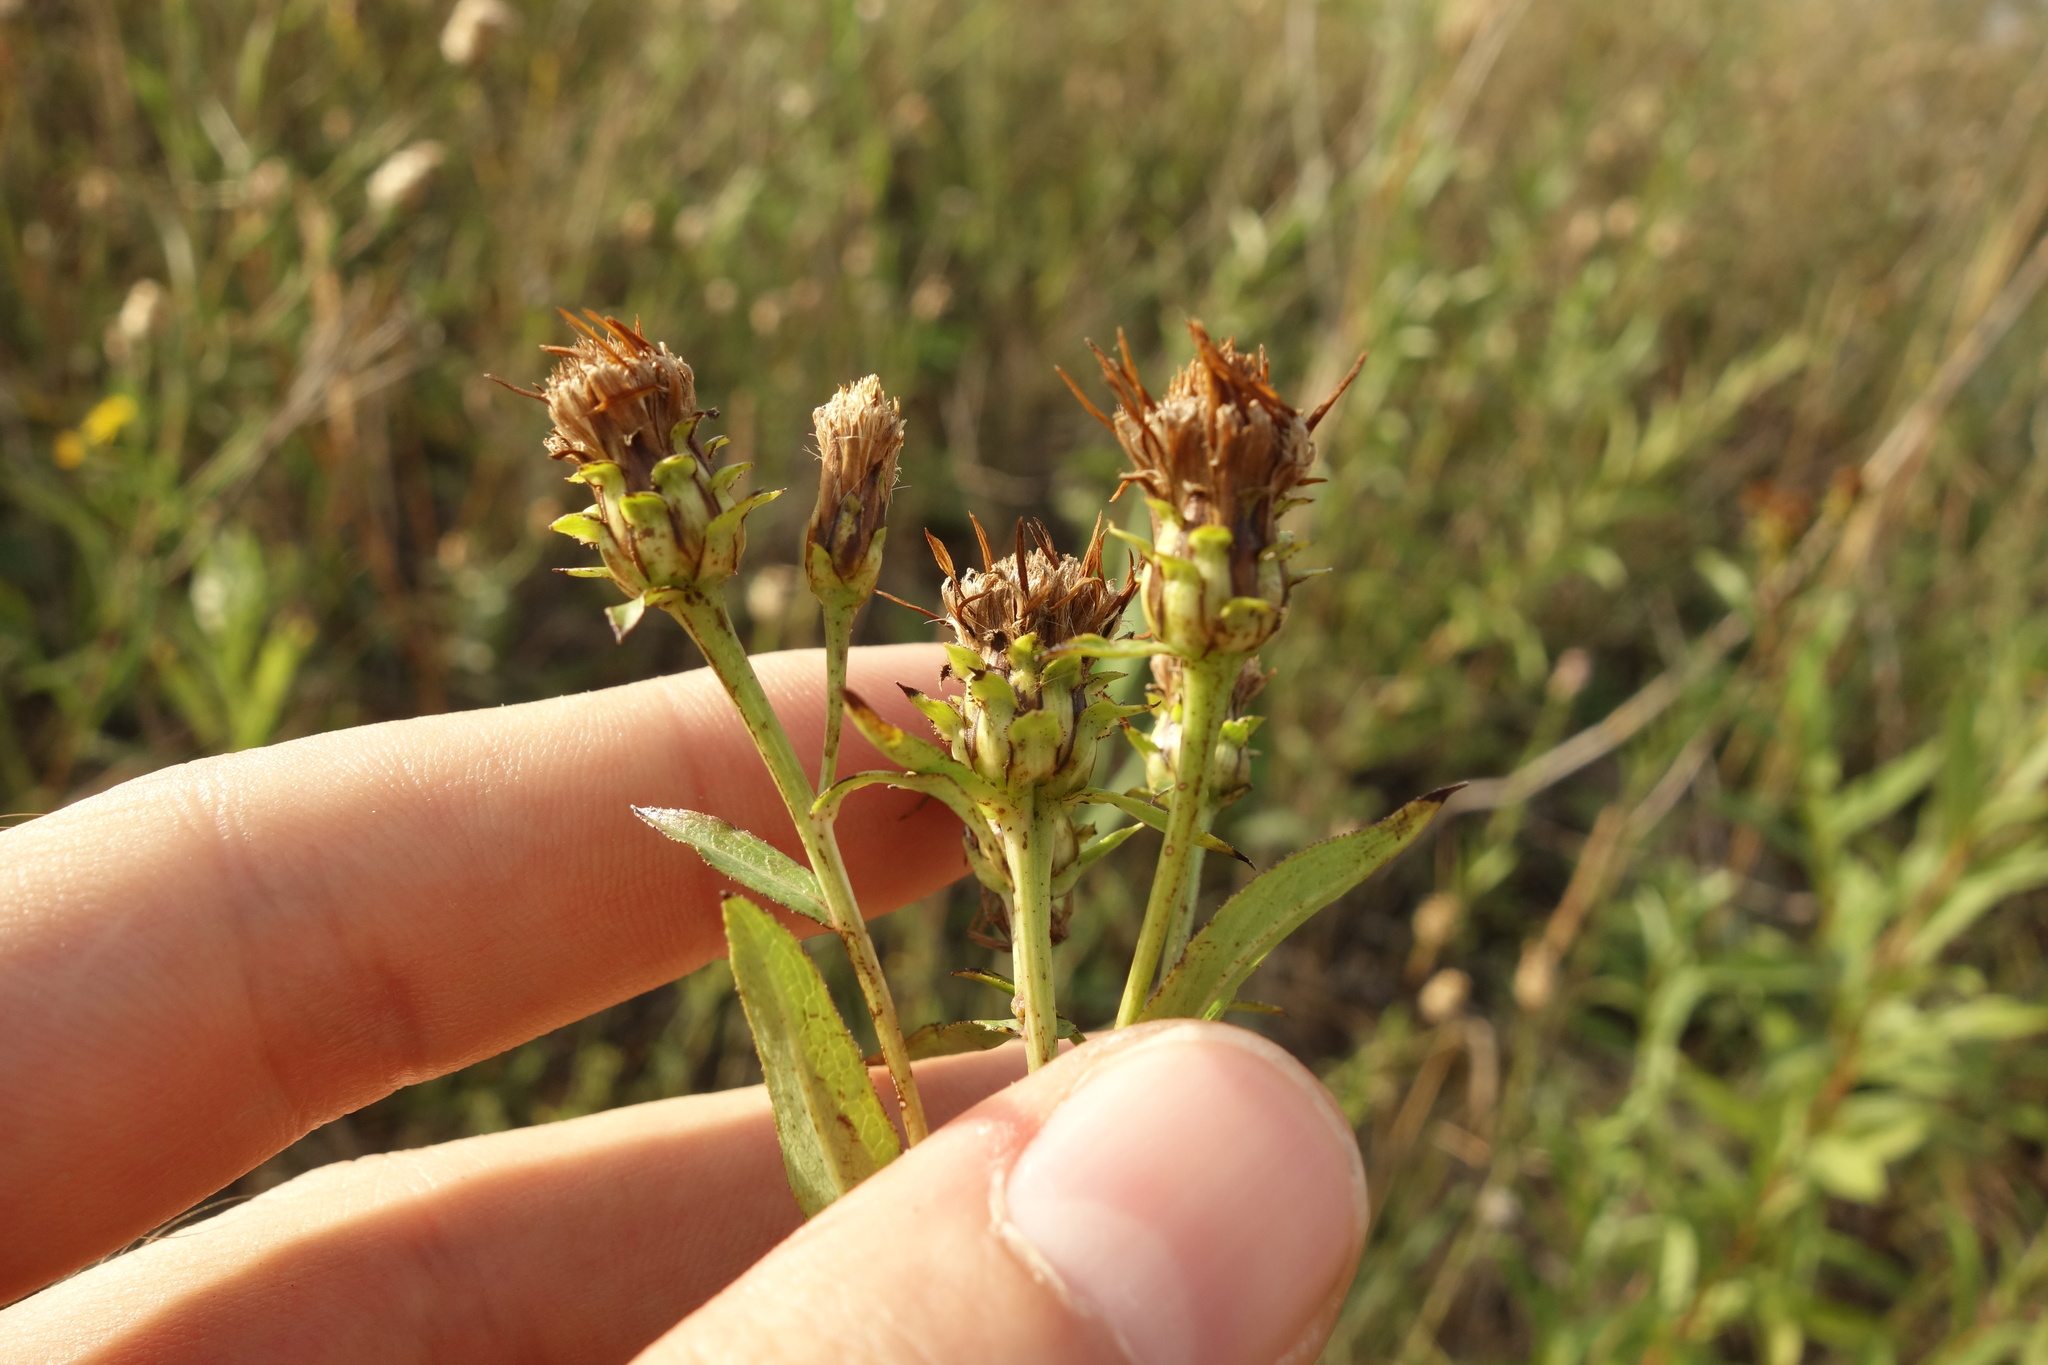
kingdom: Plantae
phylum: Tracheophyta
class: Magnoliopsida
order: Asterales
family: Asteraceae
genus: Pentanema
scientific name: Pentanema salicinum
